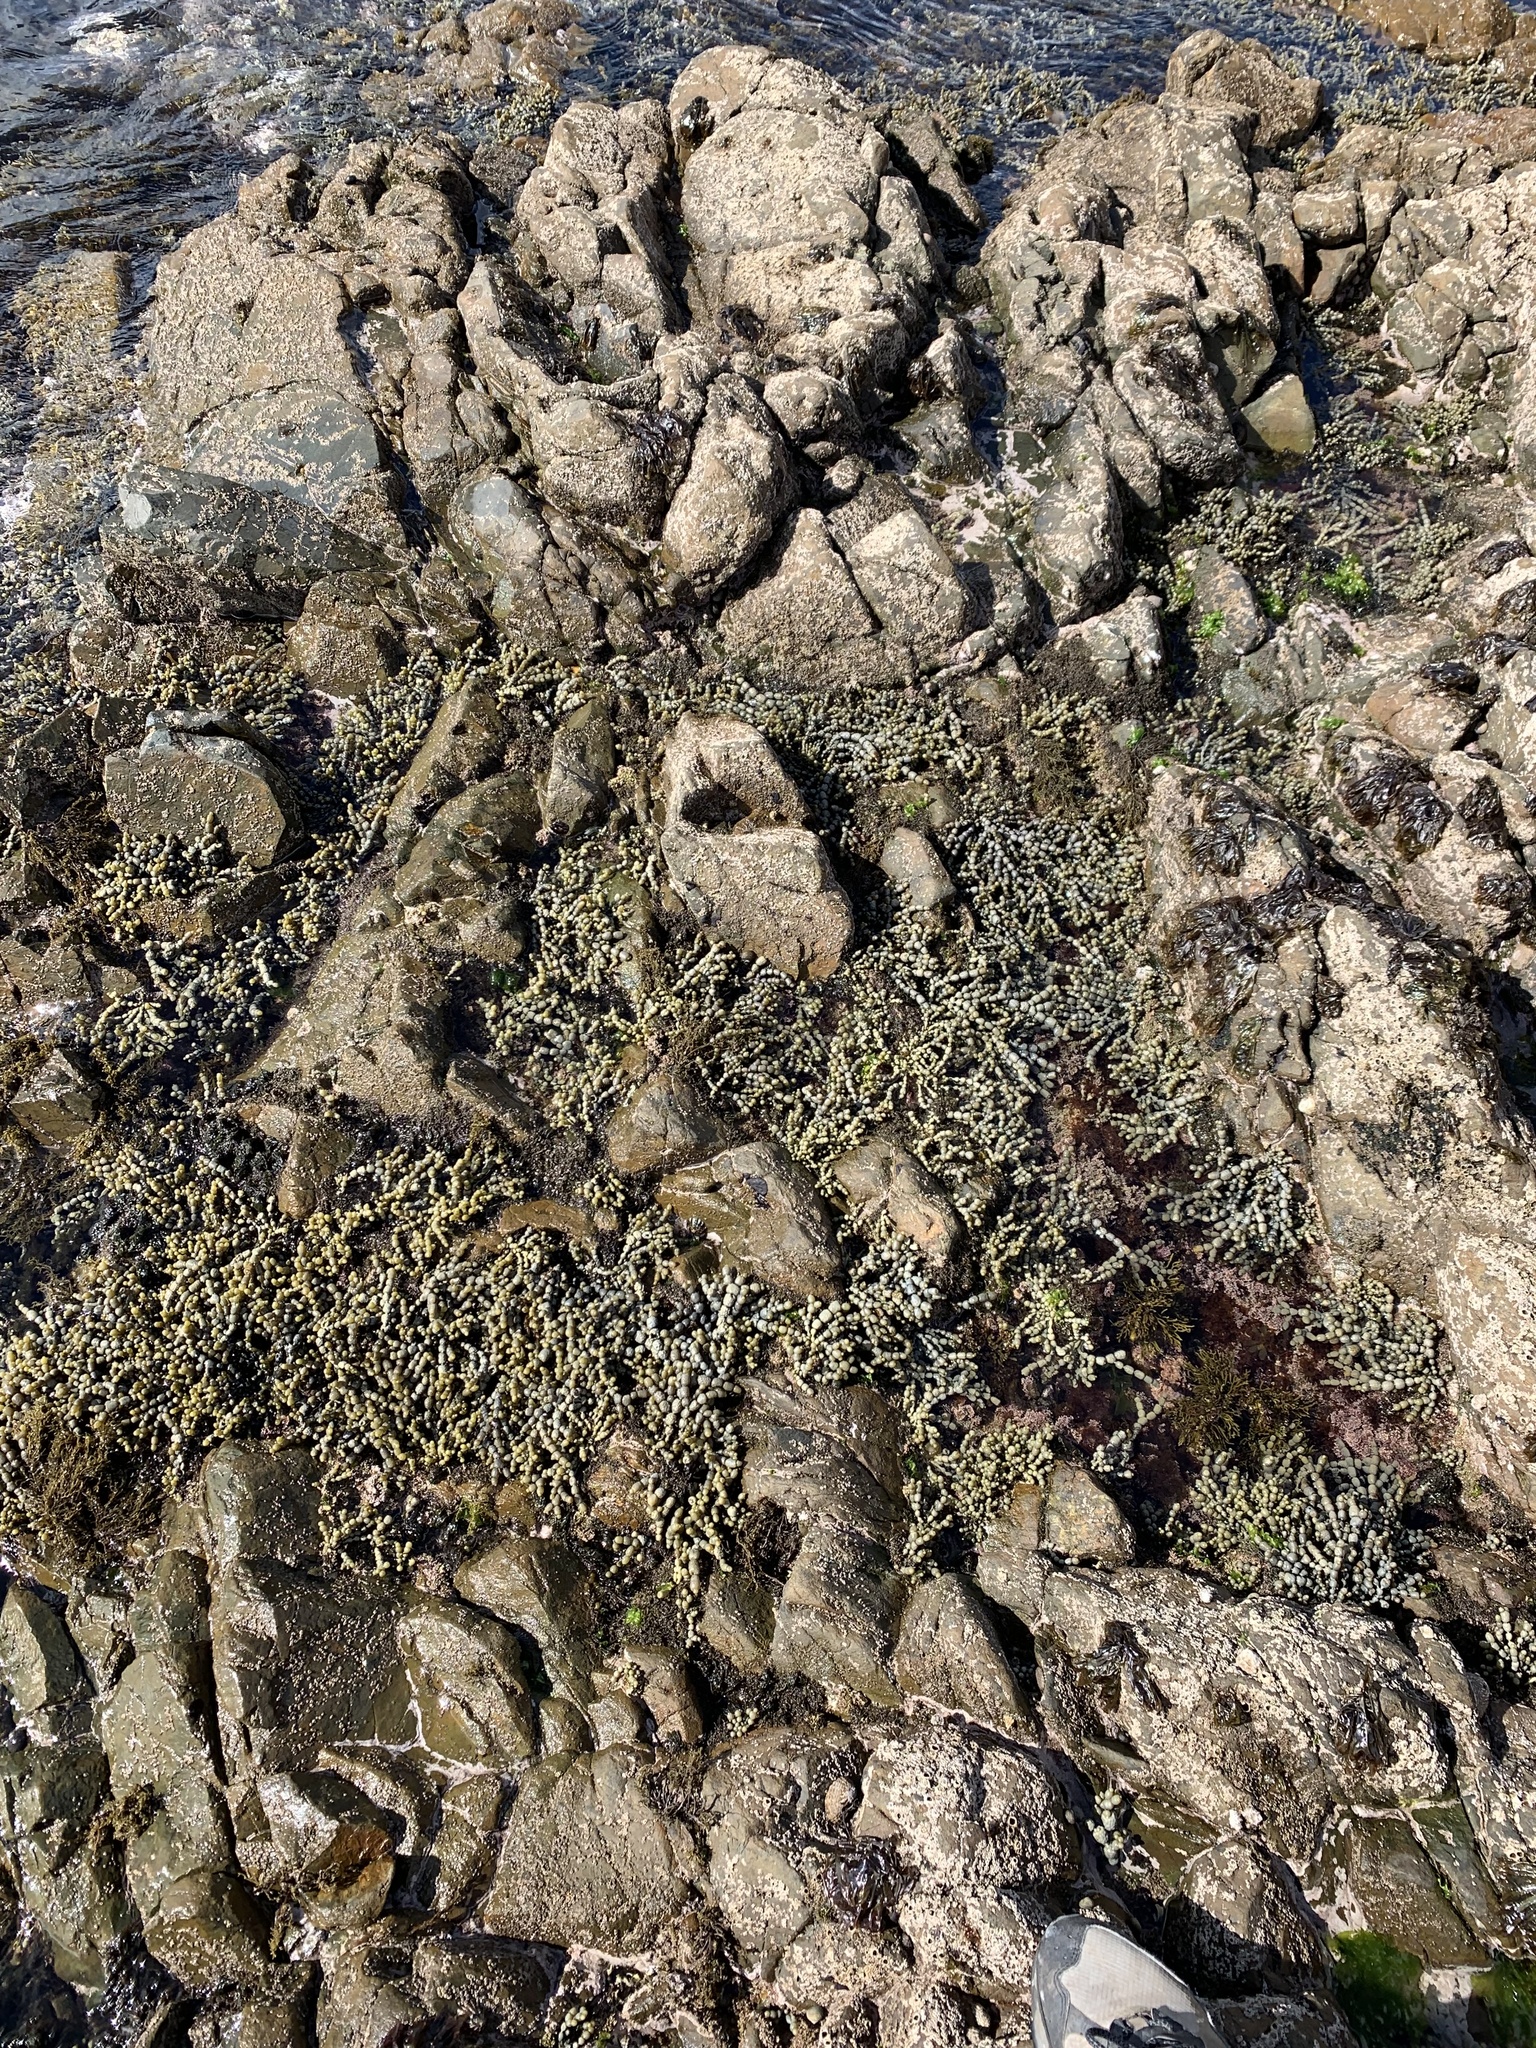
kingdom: Chromista
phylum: Ochrophyta
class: Phaeophyceae
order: Fucales
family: Hormosiraceae
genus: Hormosira
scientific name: Hormosira banksii
